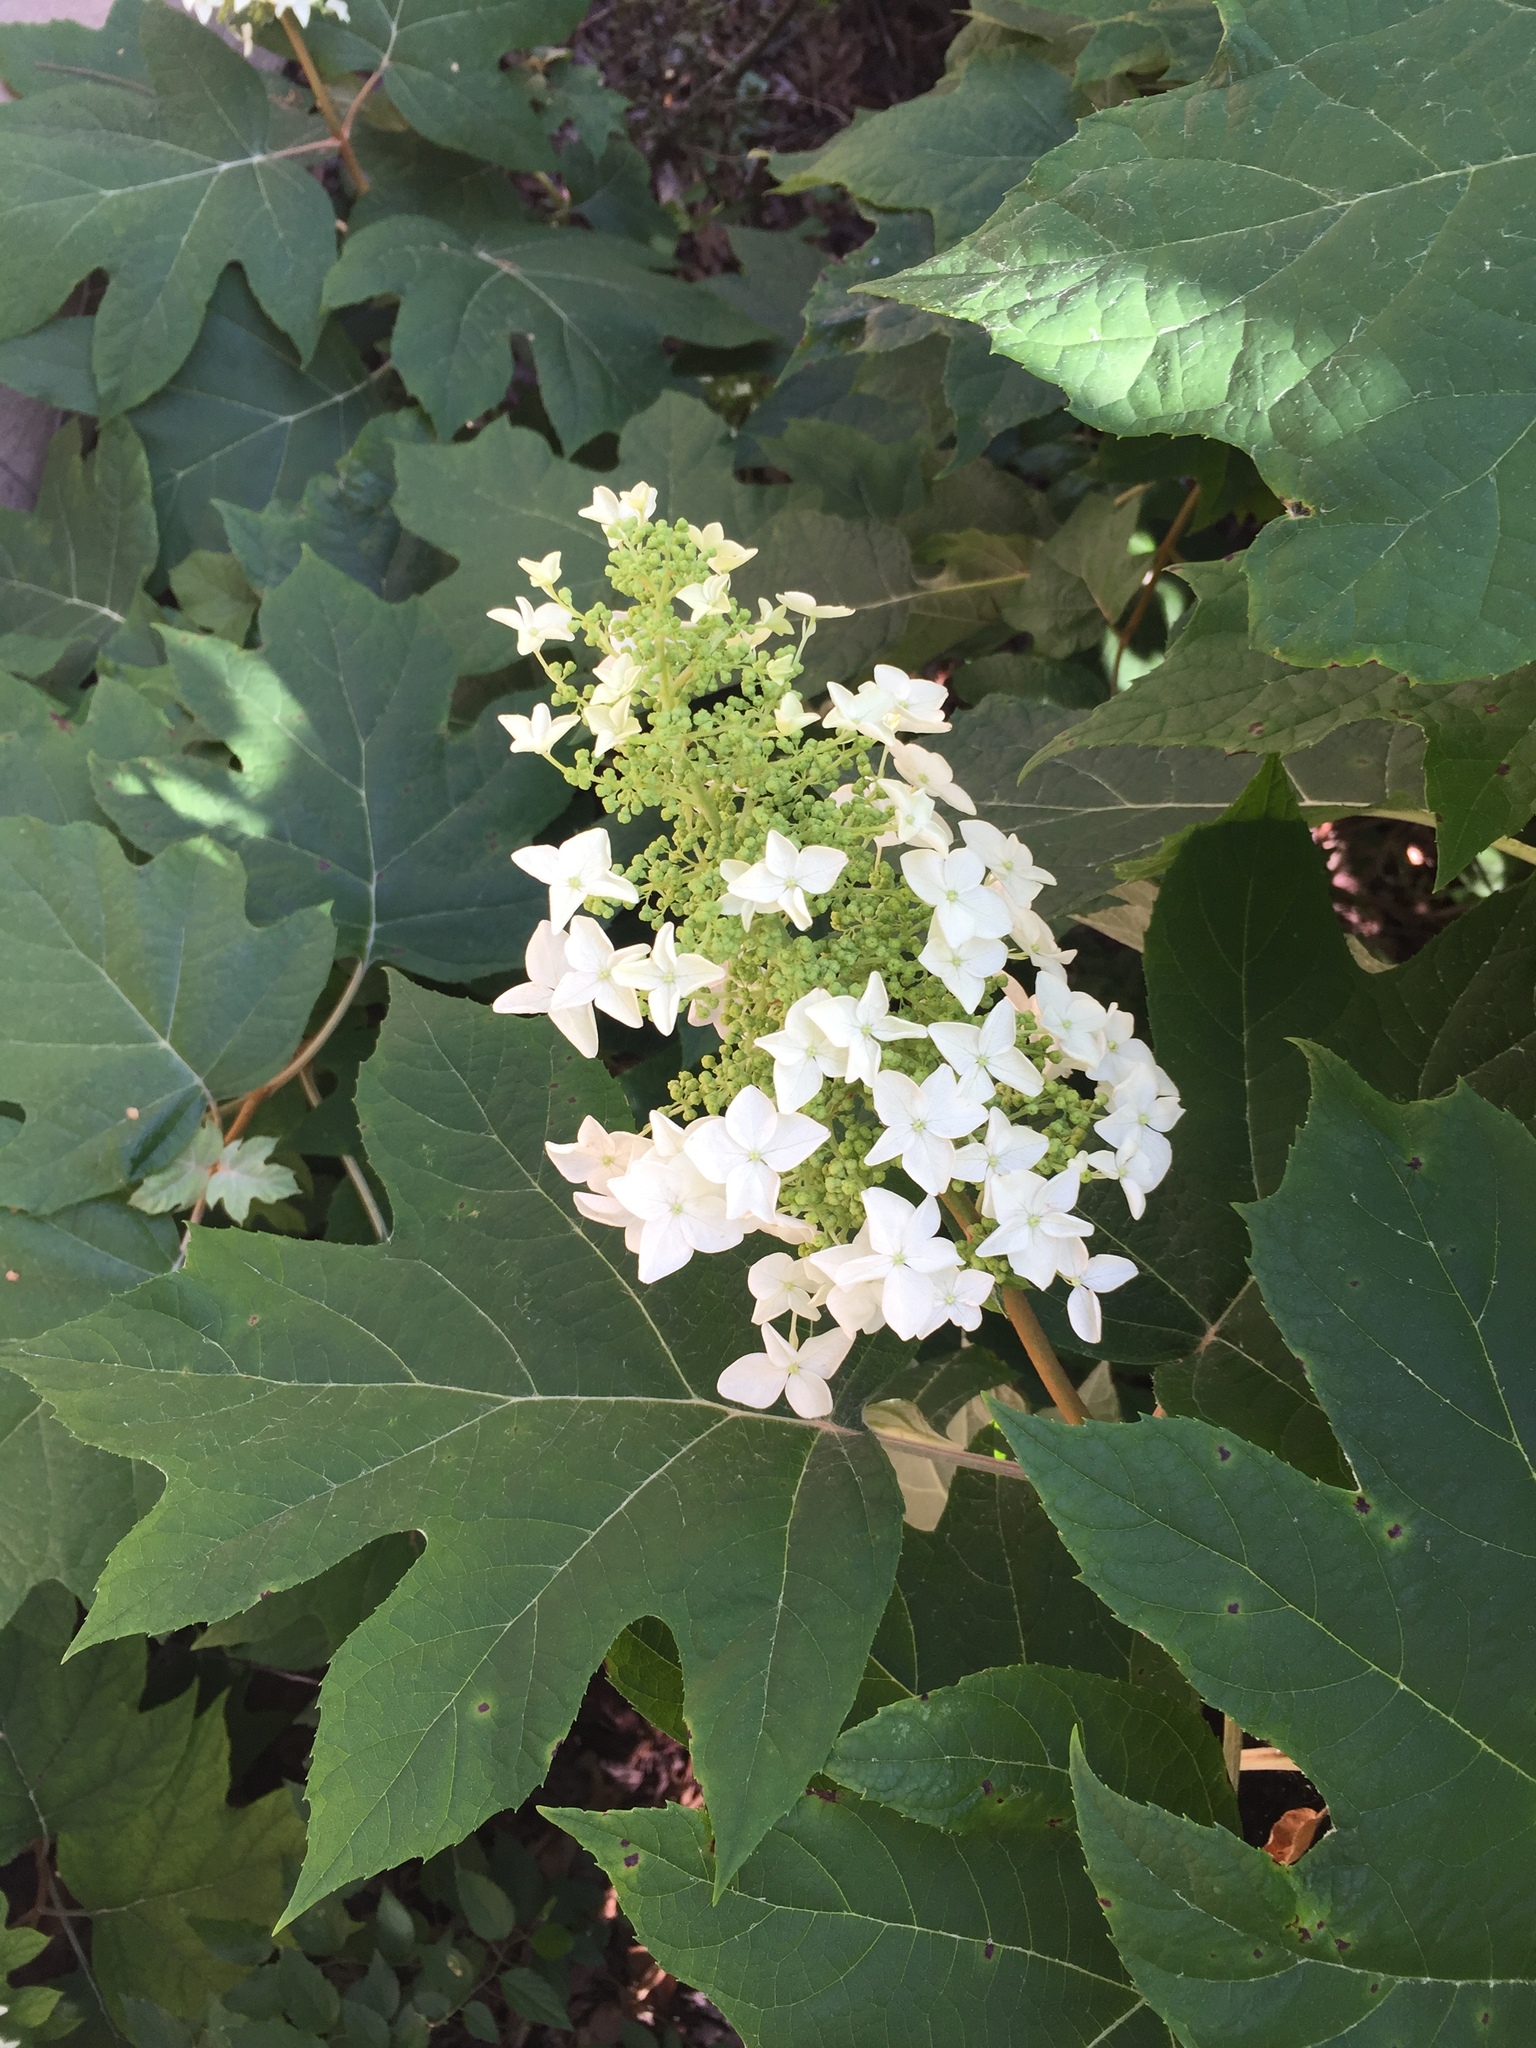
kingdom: Plantae
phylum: Tracheophyta
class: Magnoliopsida
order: Cornales
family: Hydrangeaceae
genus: Hydrangea
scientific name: Hydrangea quercifolia
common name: Oak-leaf hydrangea
